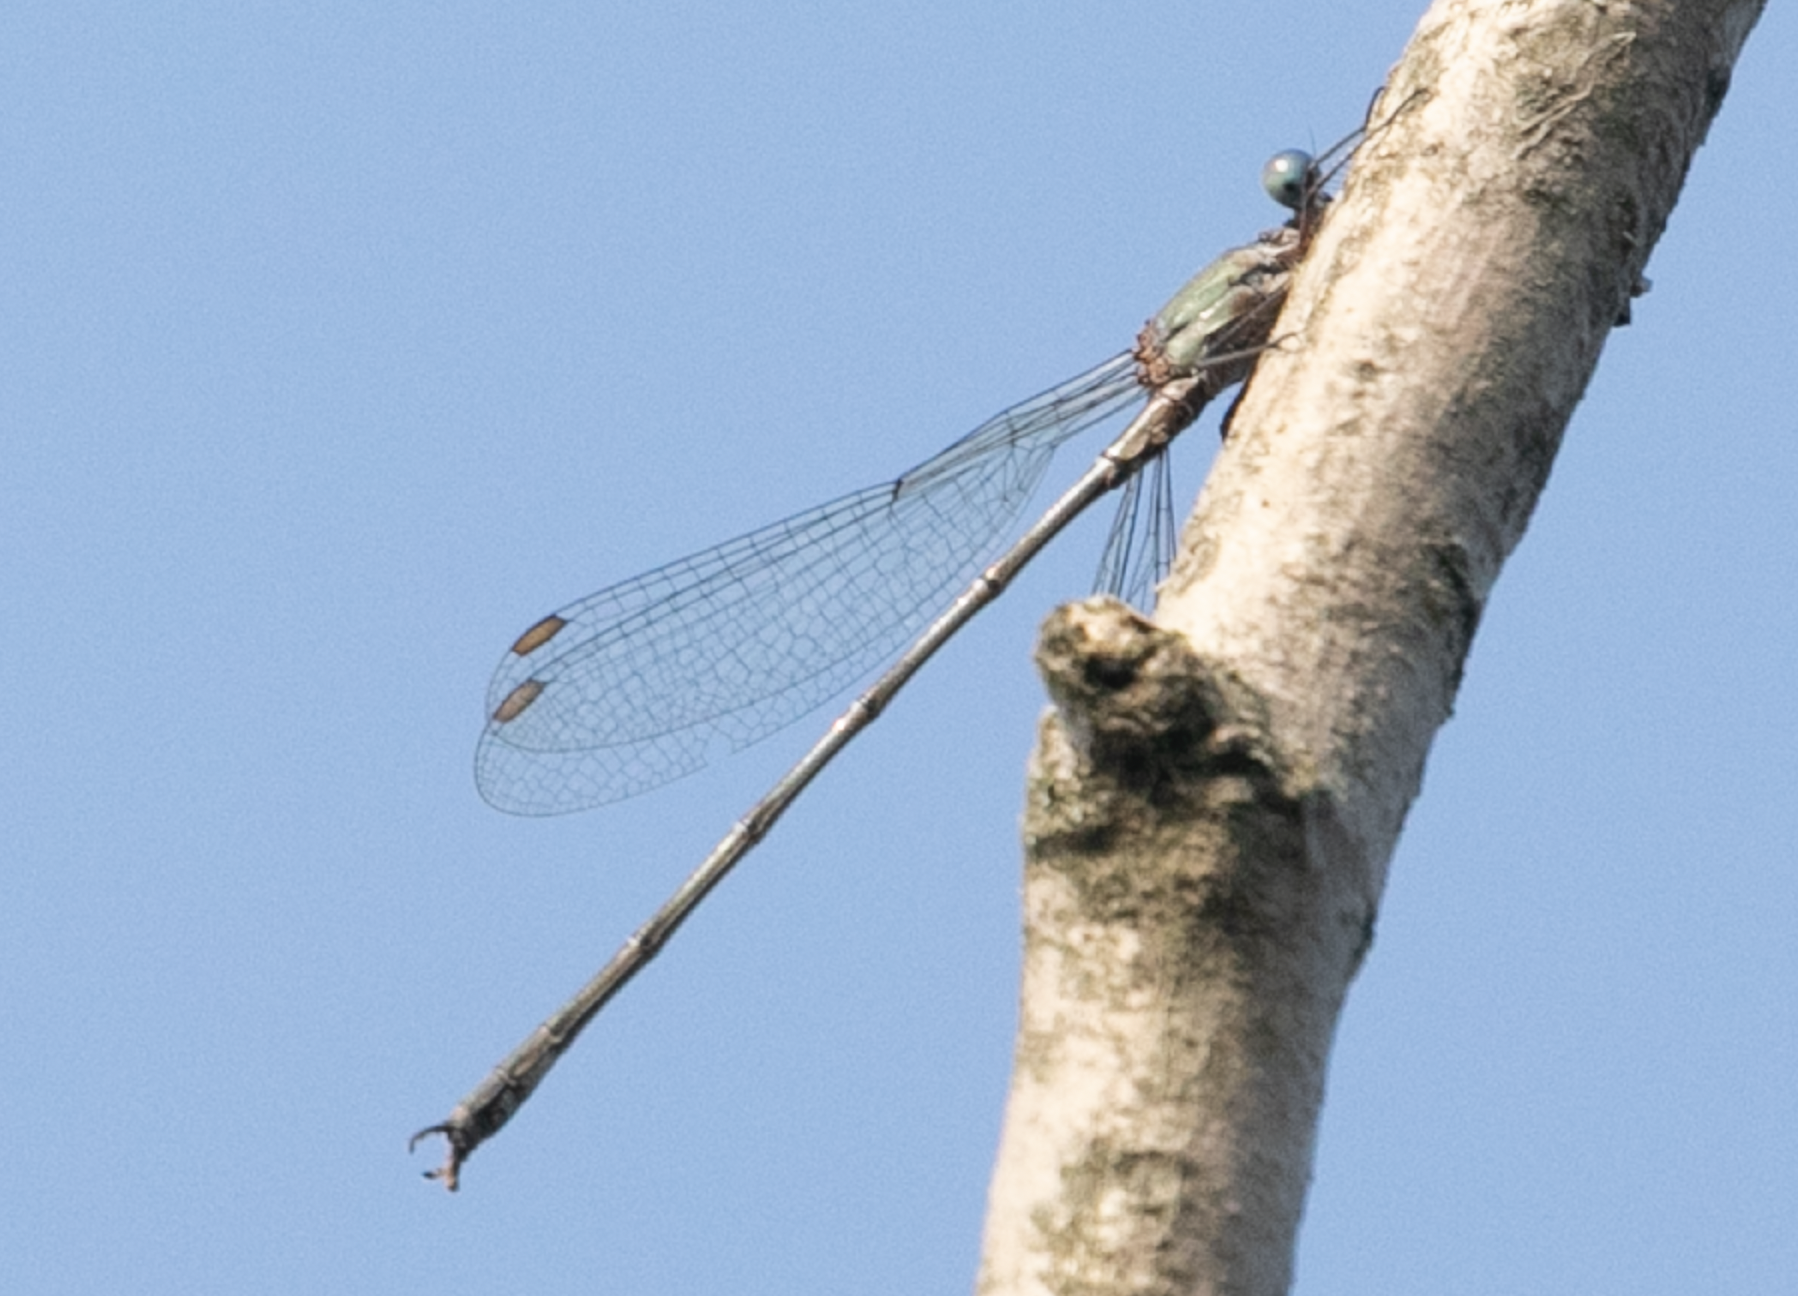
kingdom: Animalia
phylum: Arthropoda
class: Insecta
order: Odonata
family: Lestidae
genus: Chalcolestes
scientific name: Chalcolestes viridis
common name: Green emerald damselfly
